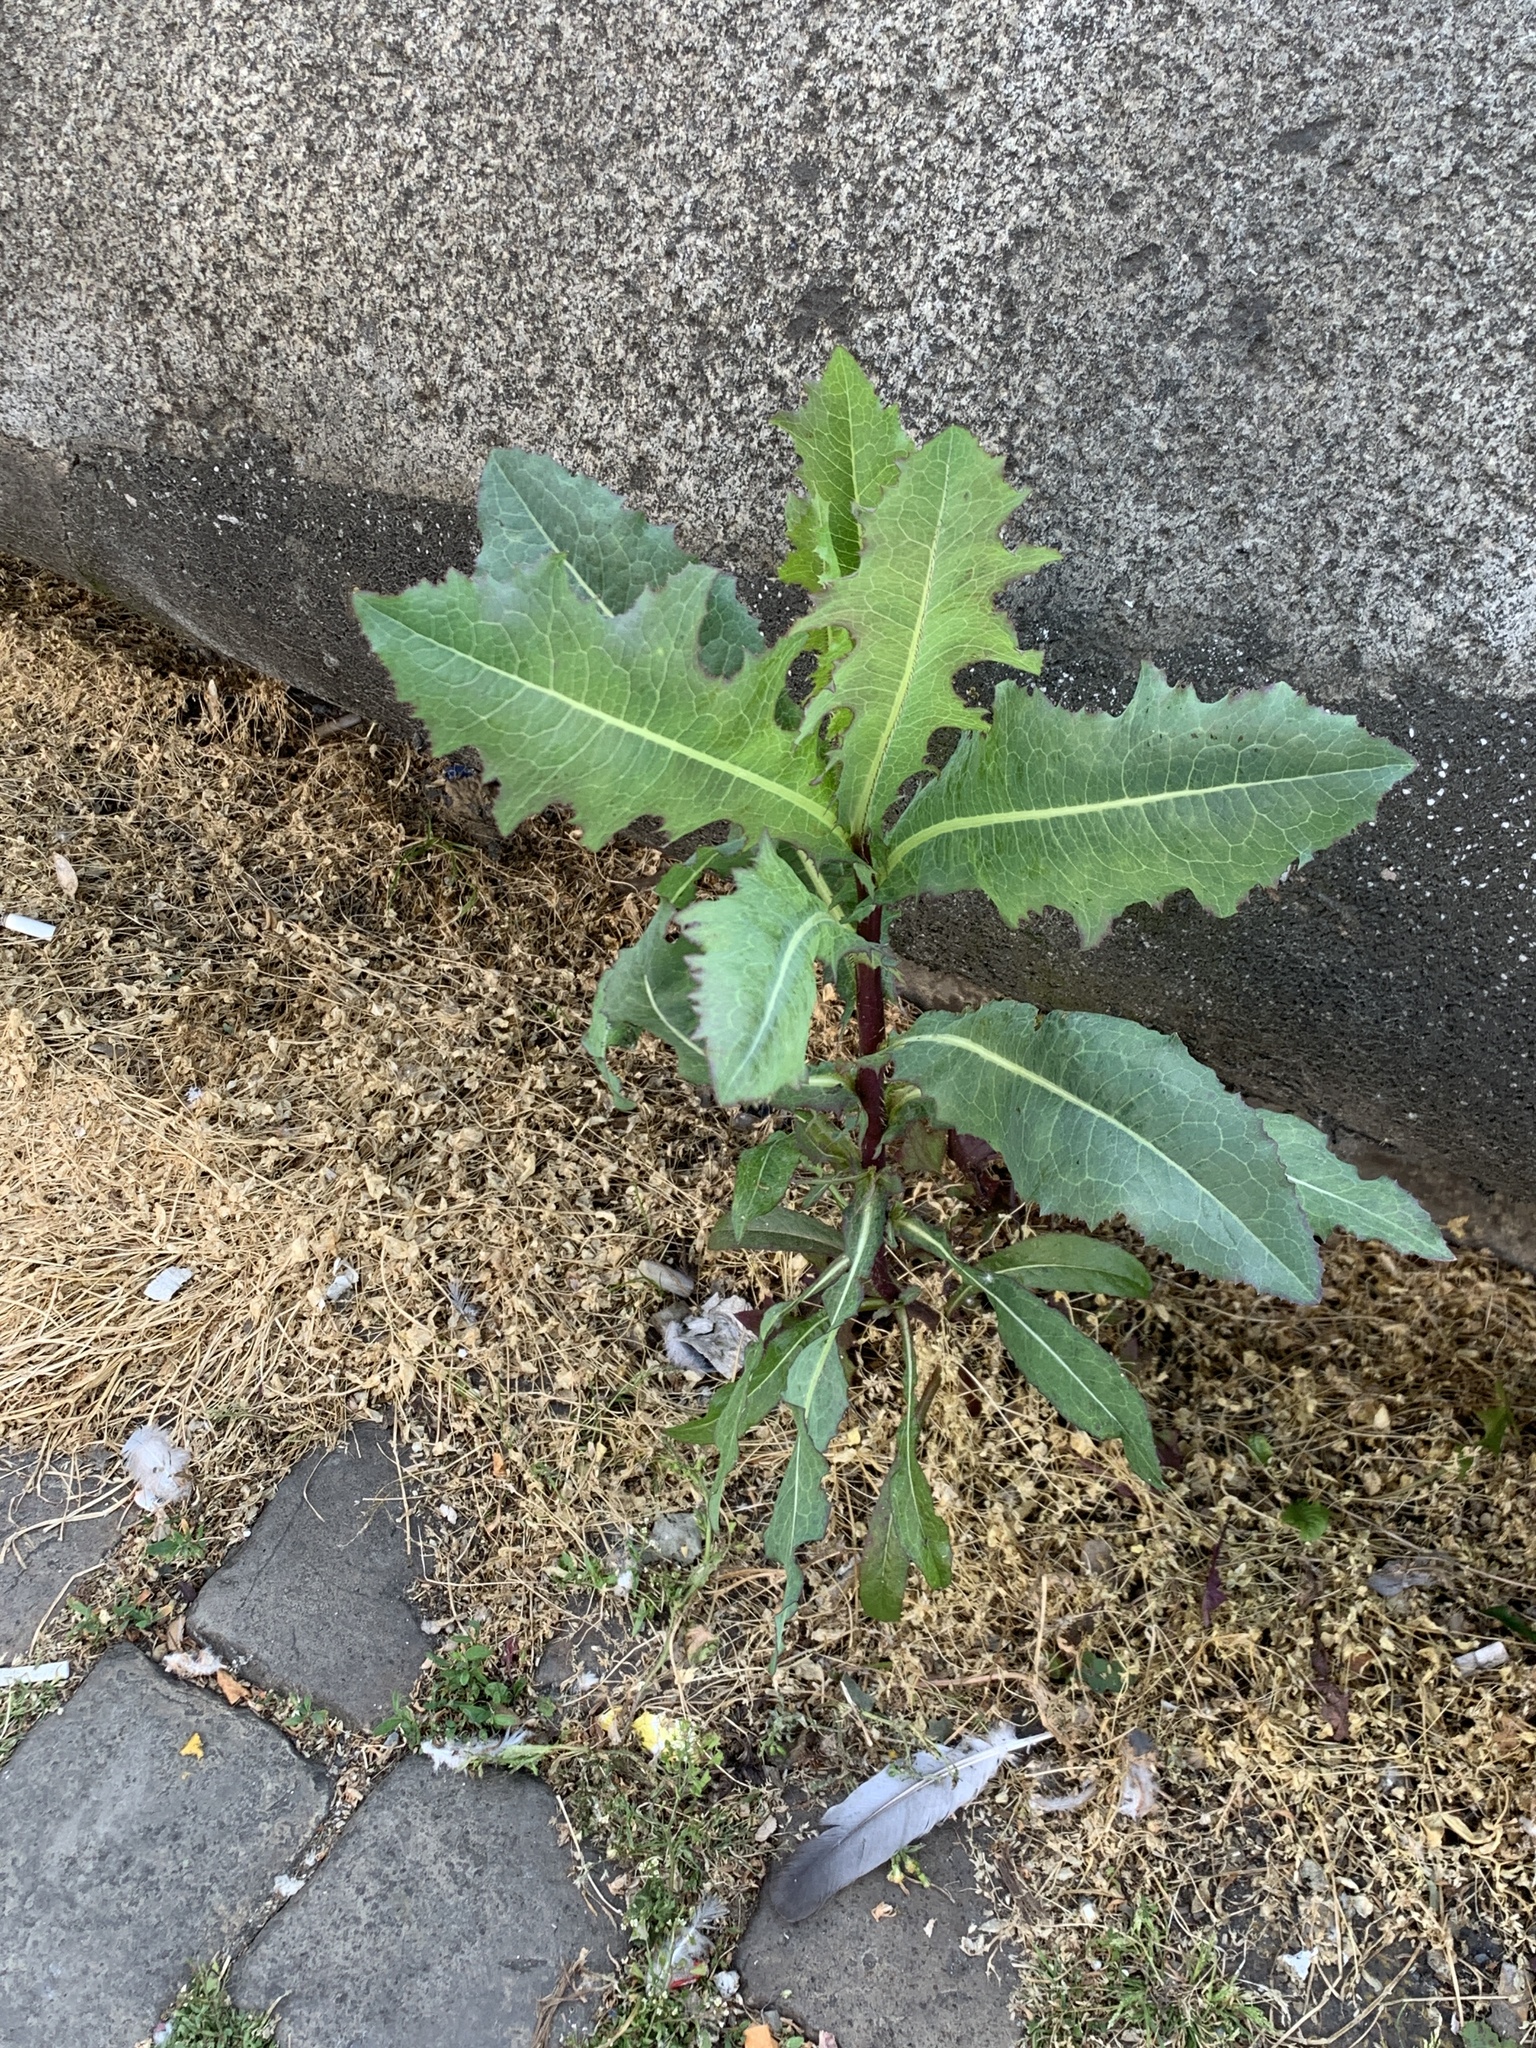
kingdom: Plantae
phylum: Tracheophyta
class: Magnoliopsida
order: Asterales
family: Asteraceae
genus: Lactuca
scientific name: Lactuca serriola
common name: Prickly lettuce
